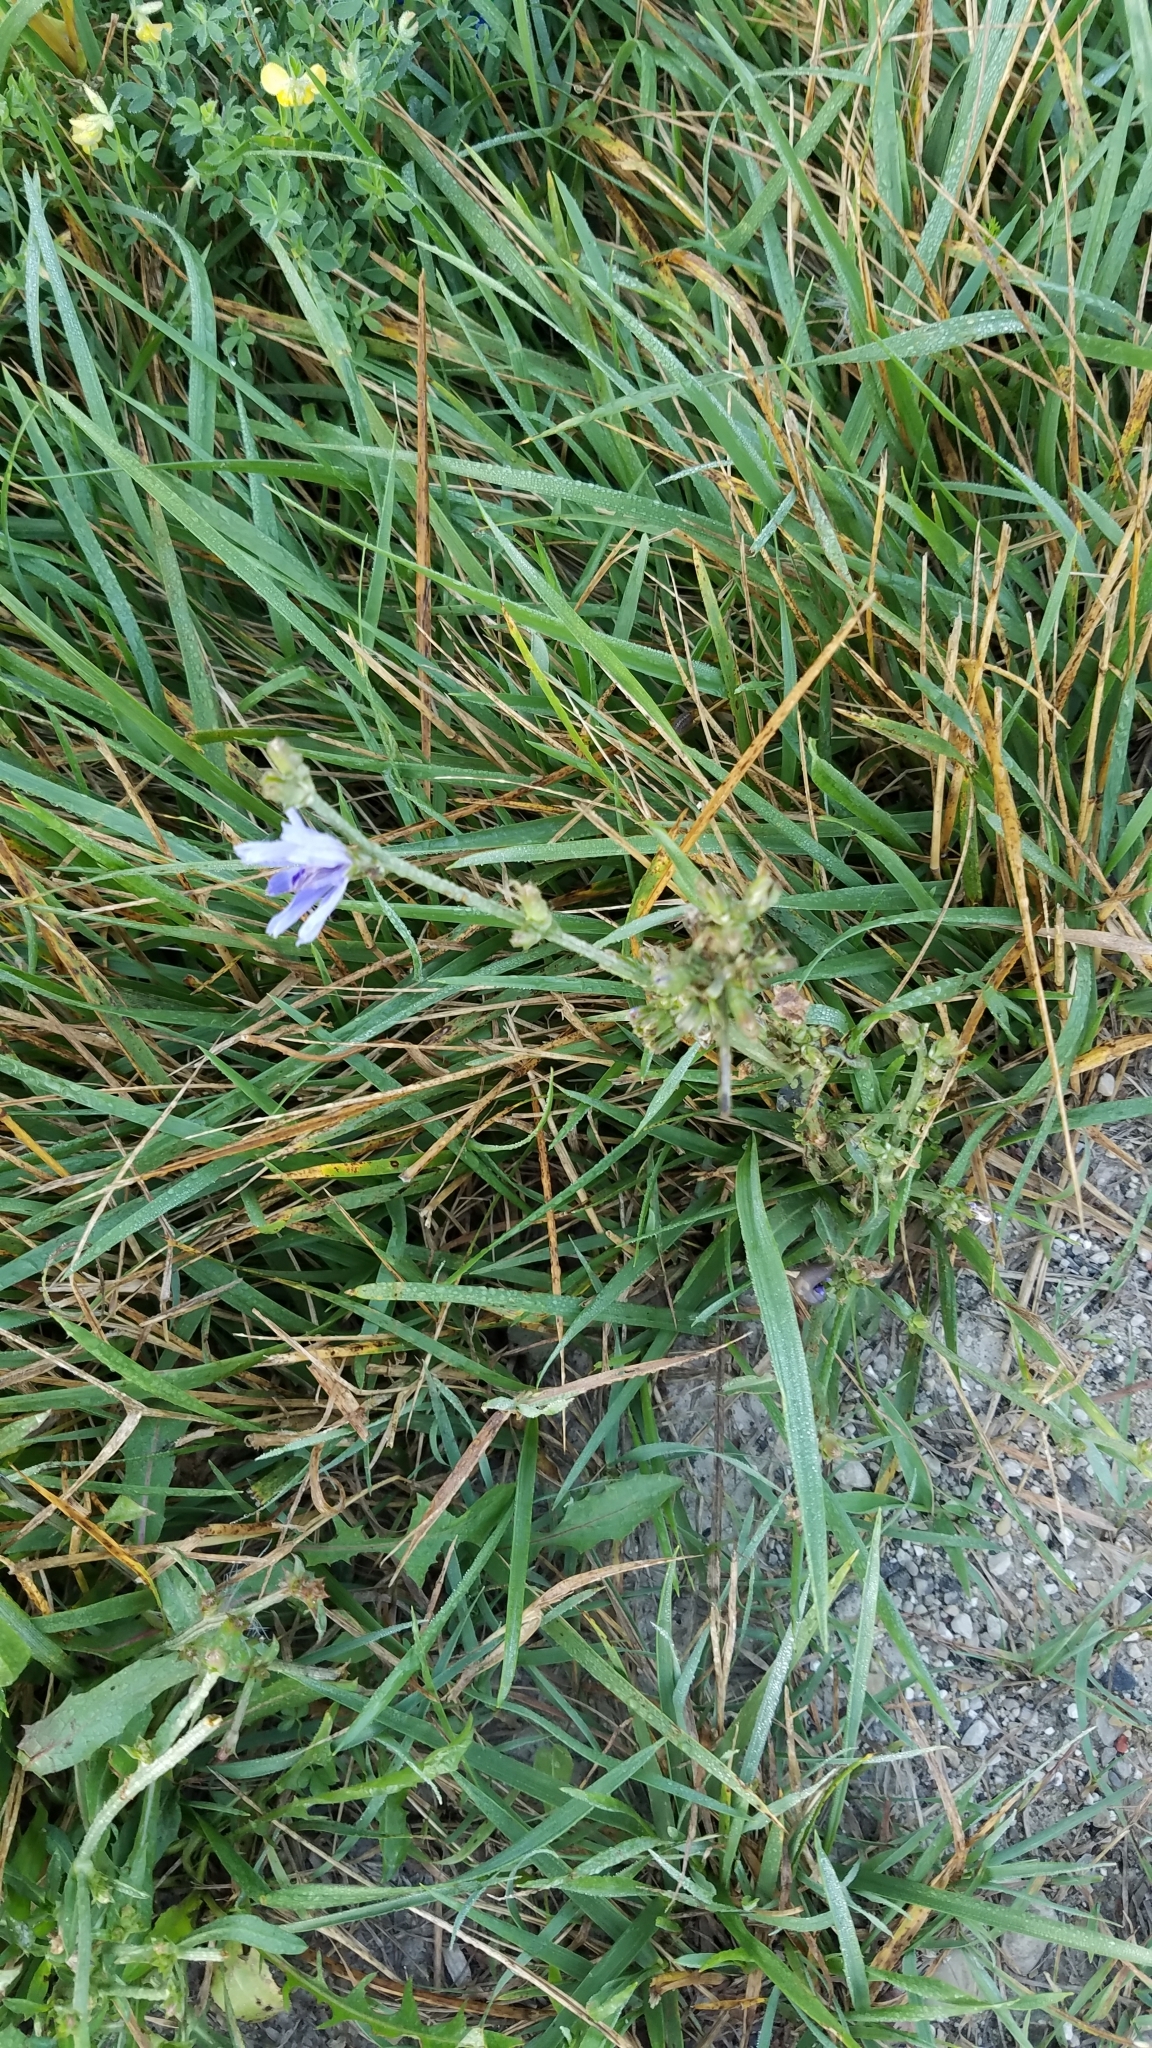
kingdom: Plantae
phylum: Tracheophyta
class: Magnoliopsida
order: Asterales
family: Asteraceae
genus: Cichorium
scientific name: Cichorium intybus
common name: Chicory
